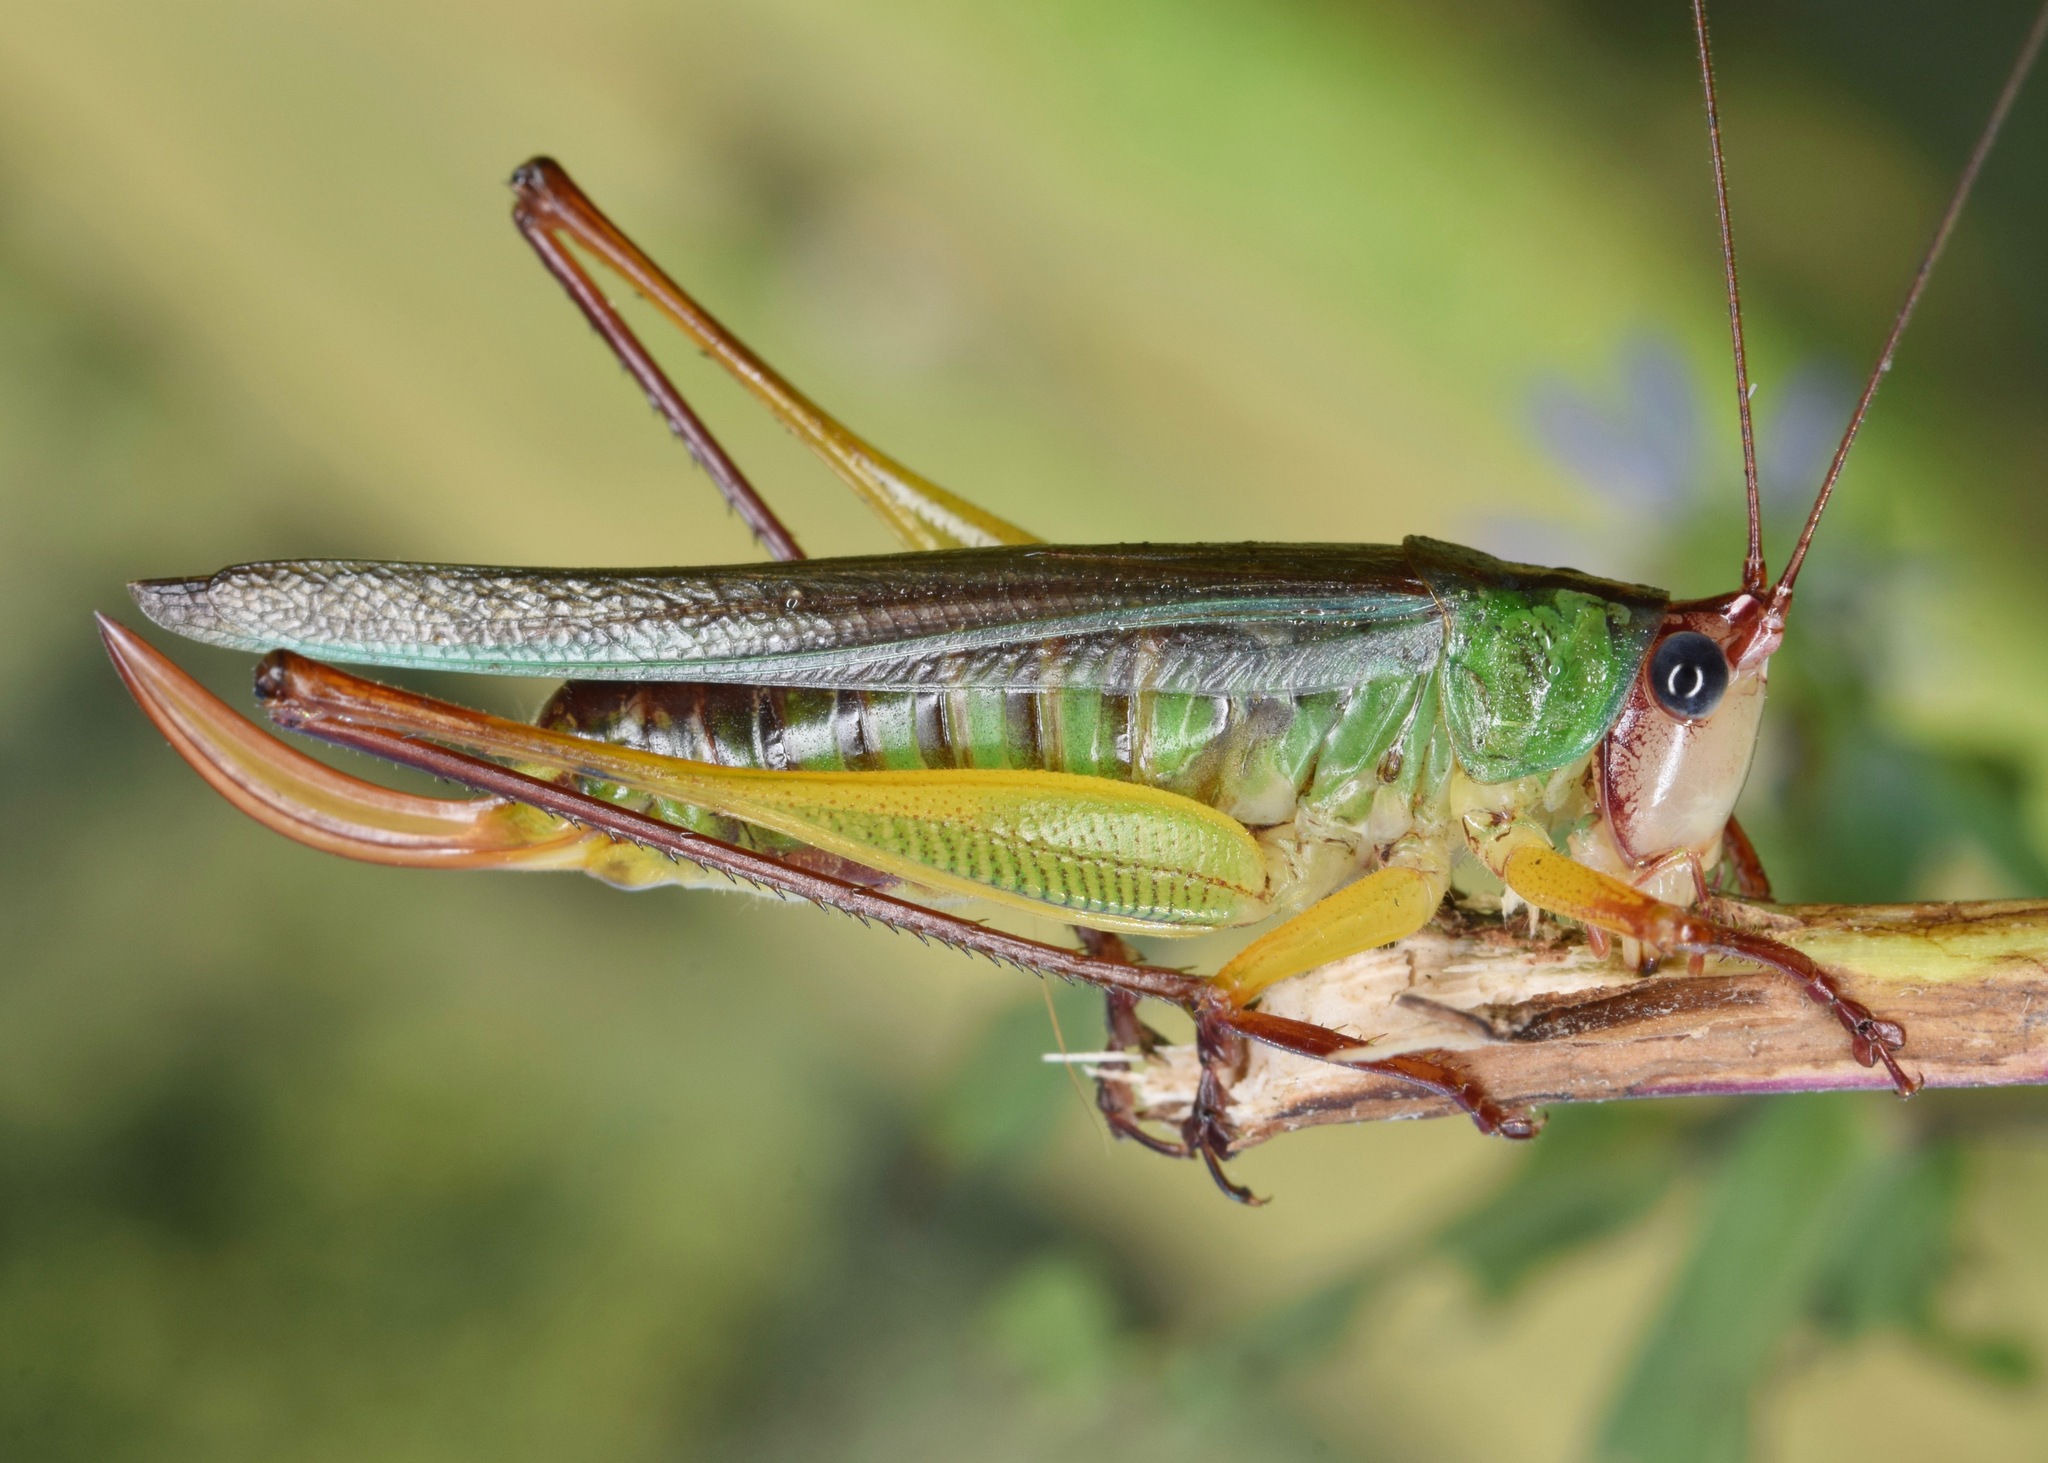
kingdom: Animalia
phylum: Arthropoda
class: Insecta
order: Orthoptera
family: Tettigoniidae
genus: Orchelimum
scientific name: Orchelimum pulchellum
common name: Handsome meadow katydid
